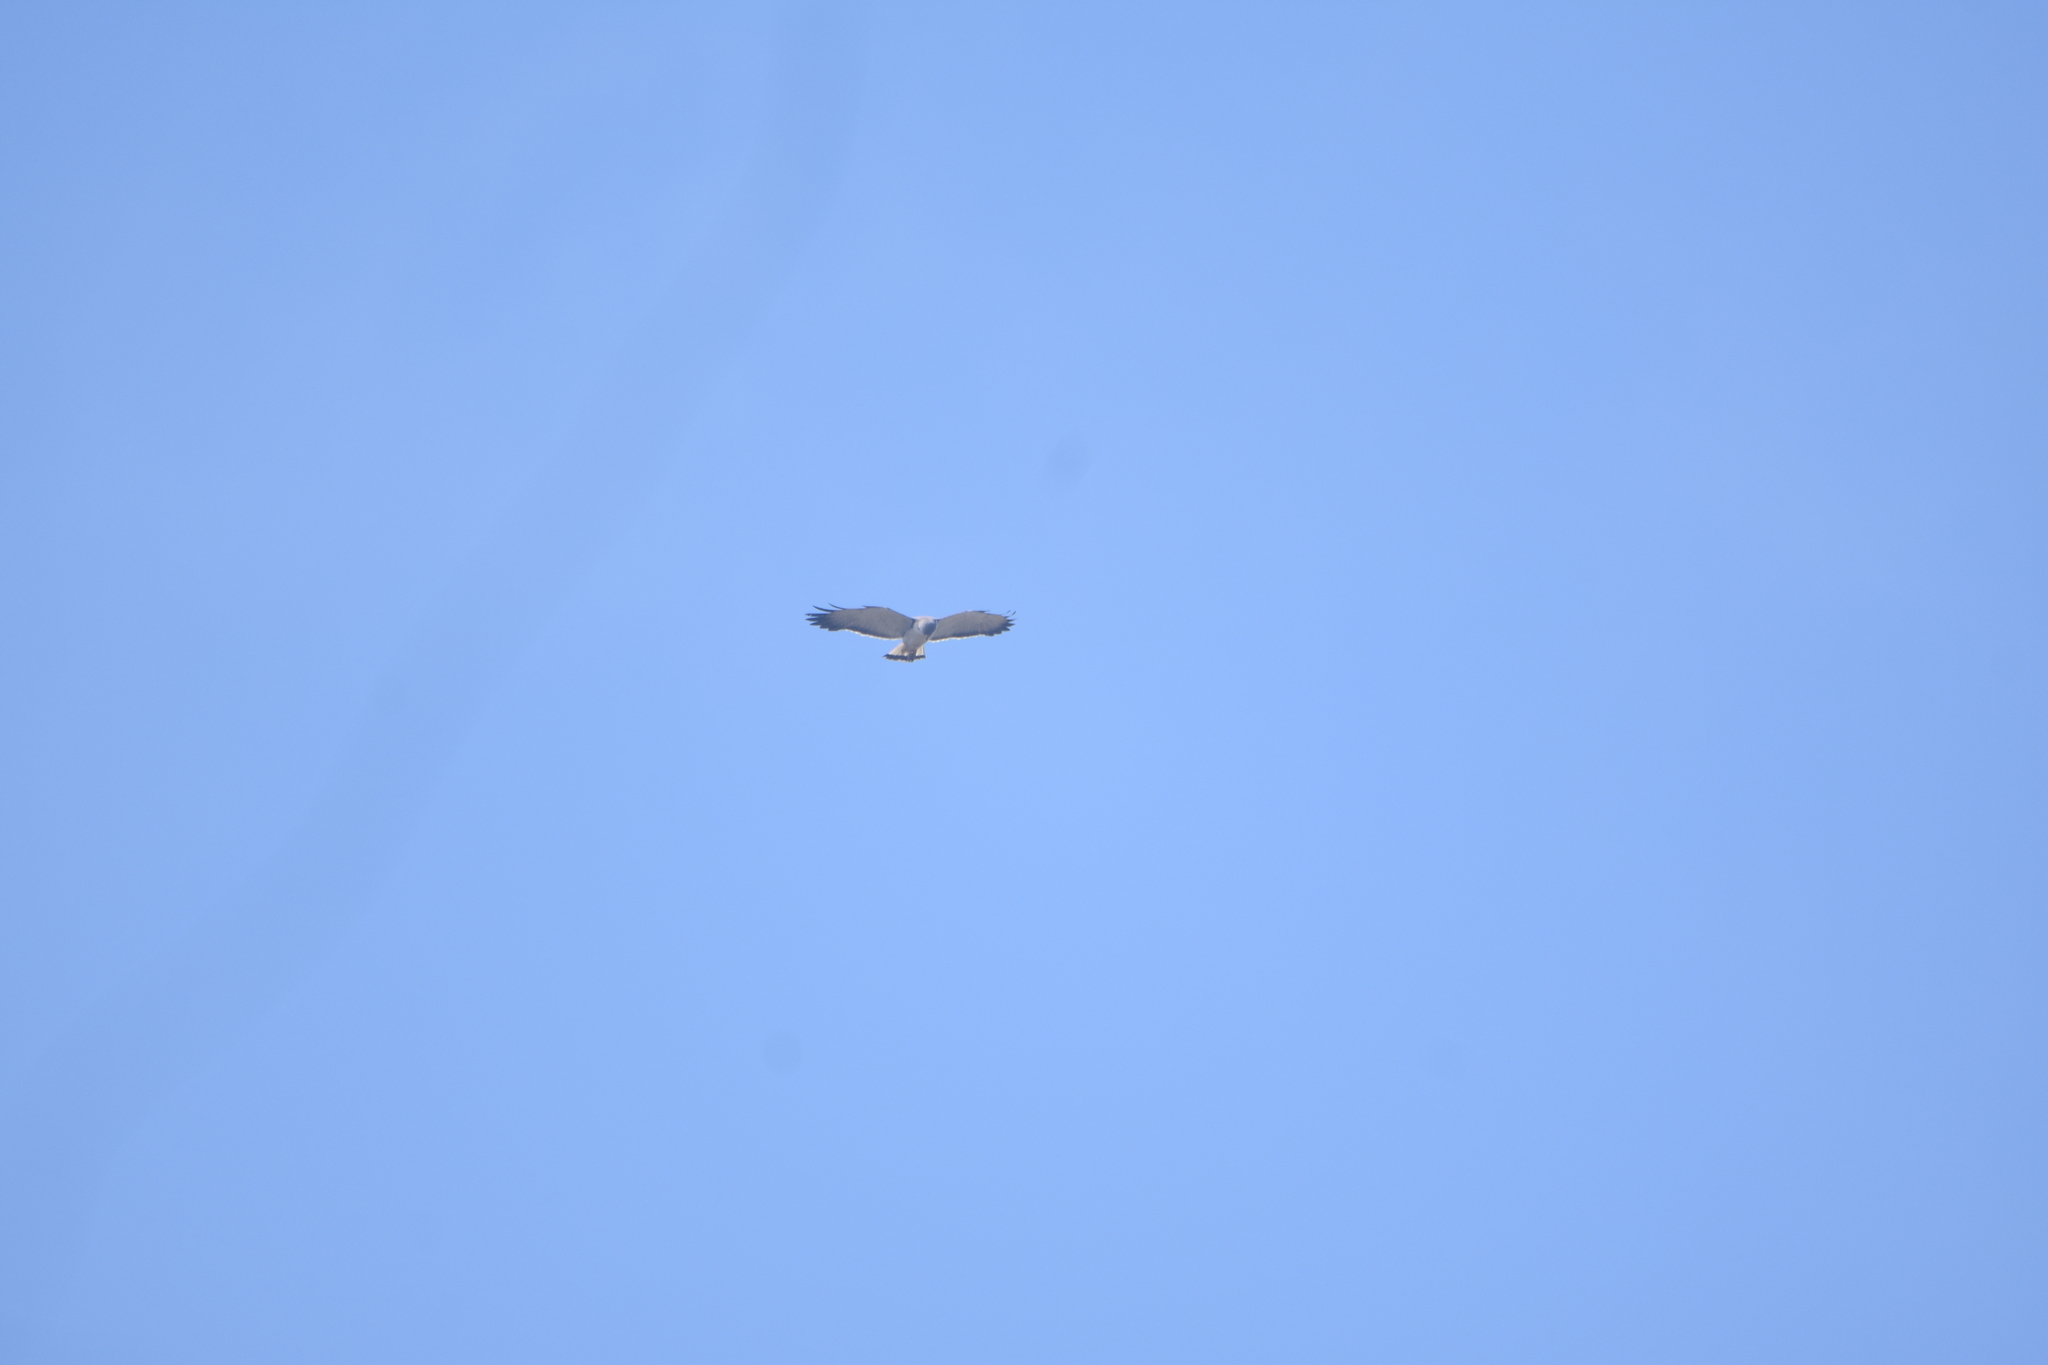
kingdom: Animalia
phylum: Chordata
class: Aves
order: Accipitriformes
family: Accipitridae
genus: Buteo
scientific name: Buteo polyosoma
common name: Variable hawk
